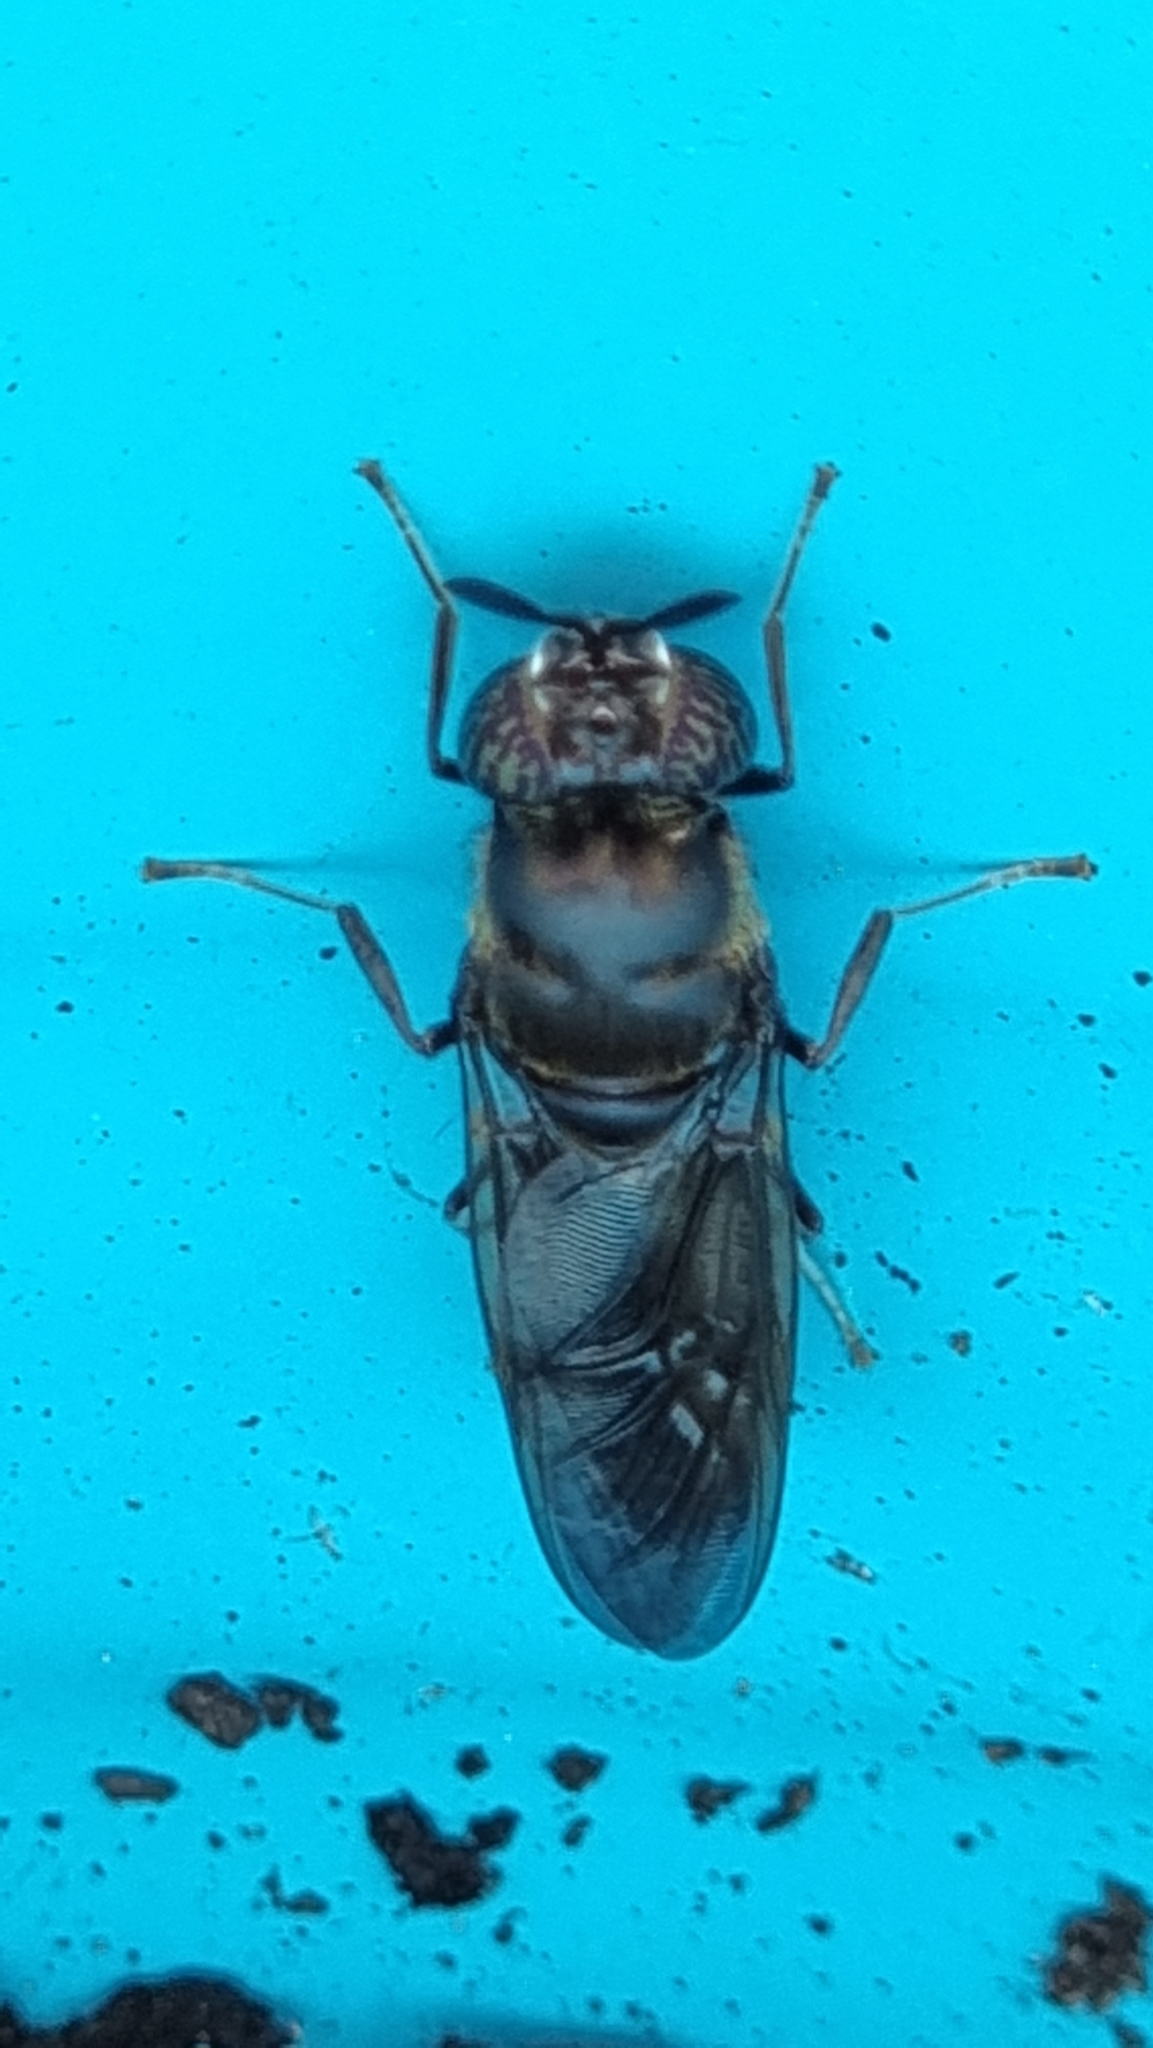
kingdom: Animalia
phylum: Arthropoda
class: Insecta
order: Diptera
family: Stratiomyidae
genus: Hermetia
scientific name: Hermetia illucens
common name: Black soldier fly
